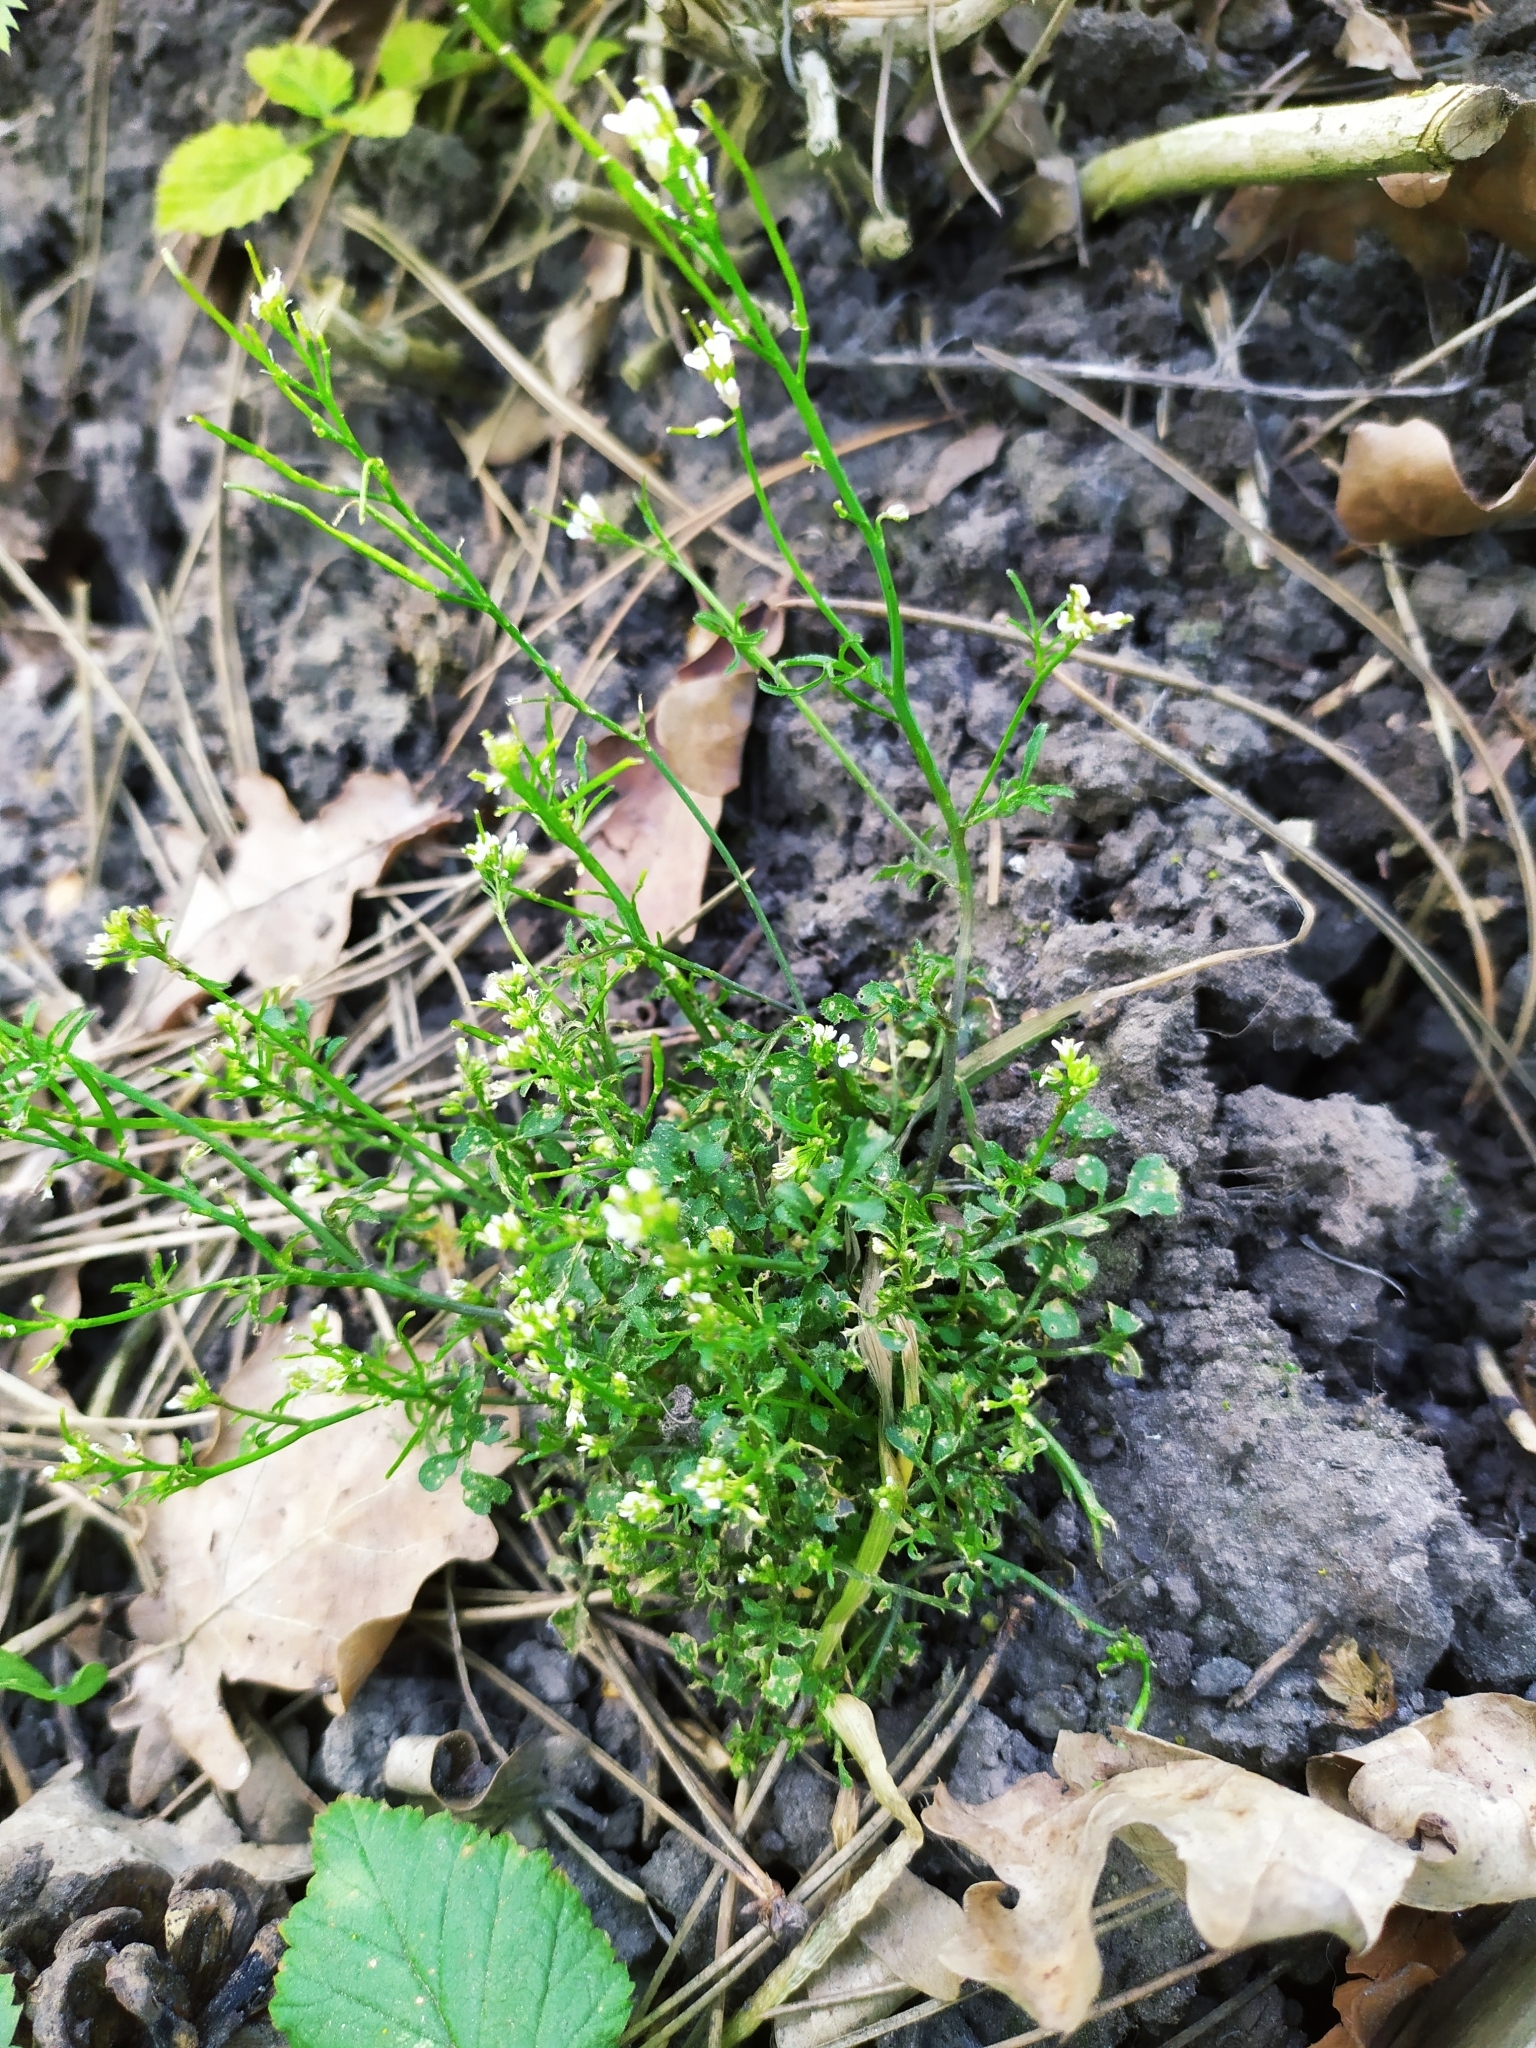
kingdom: Plantae
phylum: Tracheophyta
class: Magnoliopsida
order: Brassicales
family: Brassicaceae
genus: Cardamine
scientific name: Cardamine hirsuta
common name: Hairy bittercress
